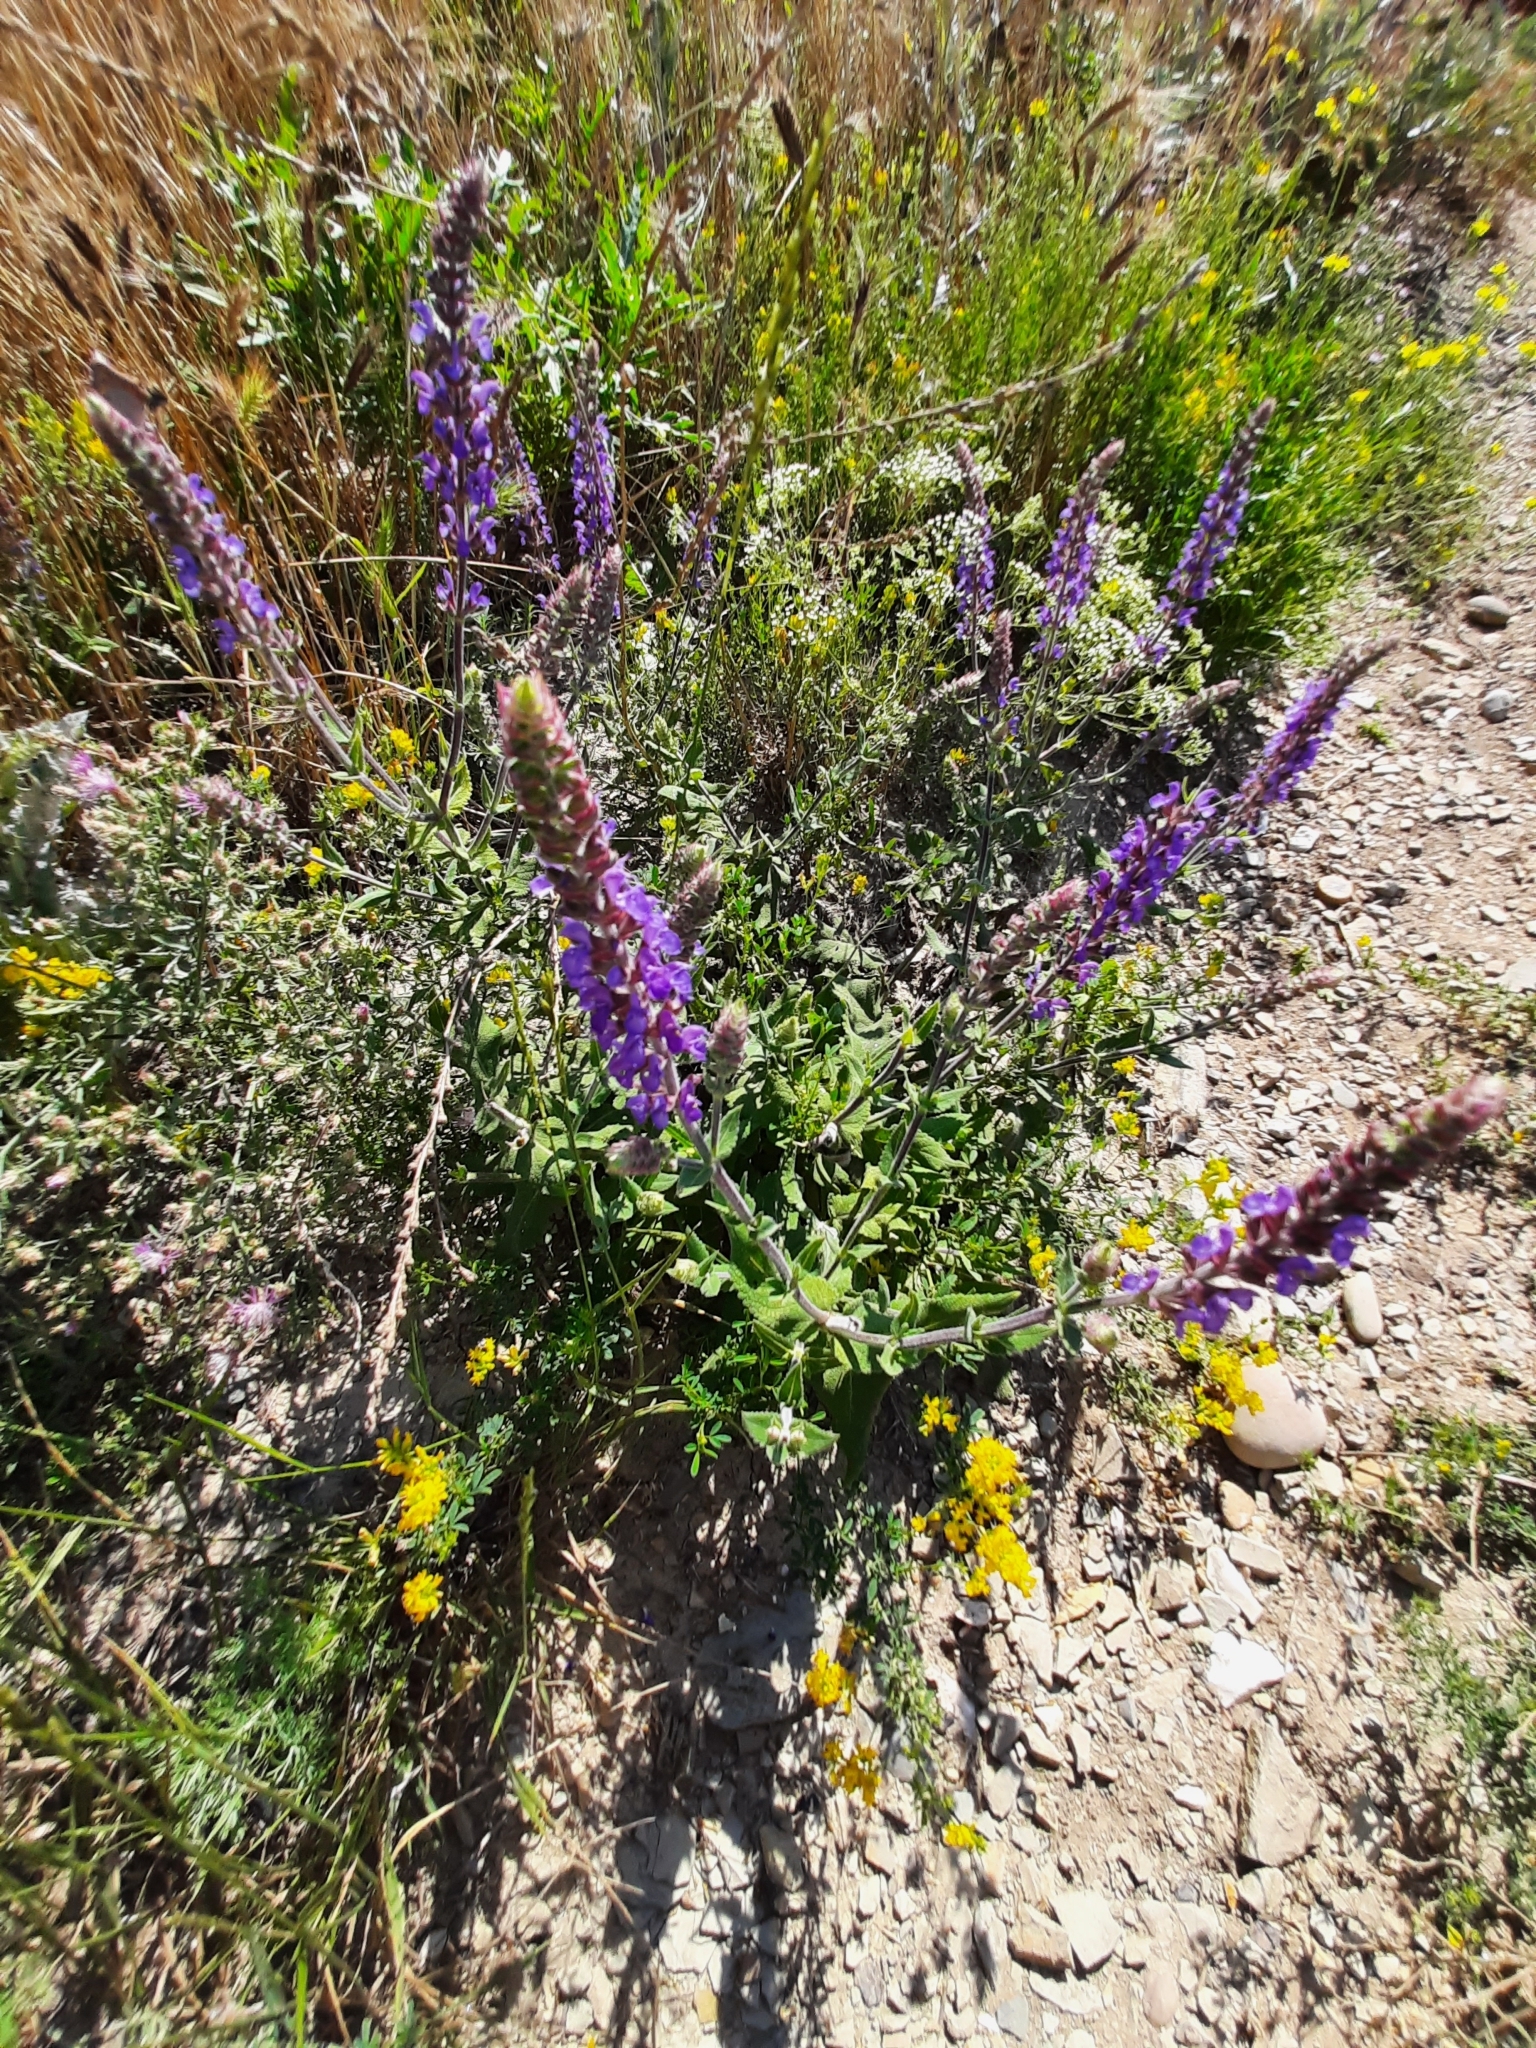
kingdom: Plantae
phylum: Tracheophyta
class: Magnoliopsida
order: Lamiales
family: Lamiaceae
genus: Salvia
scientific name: Salvia nemorosa
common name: Balkan clary
